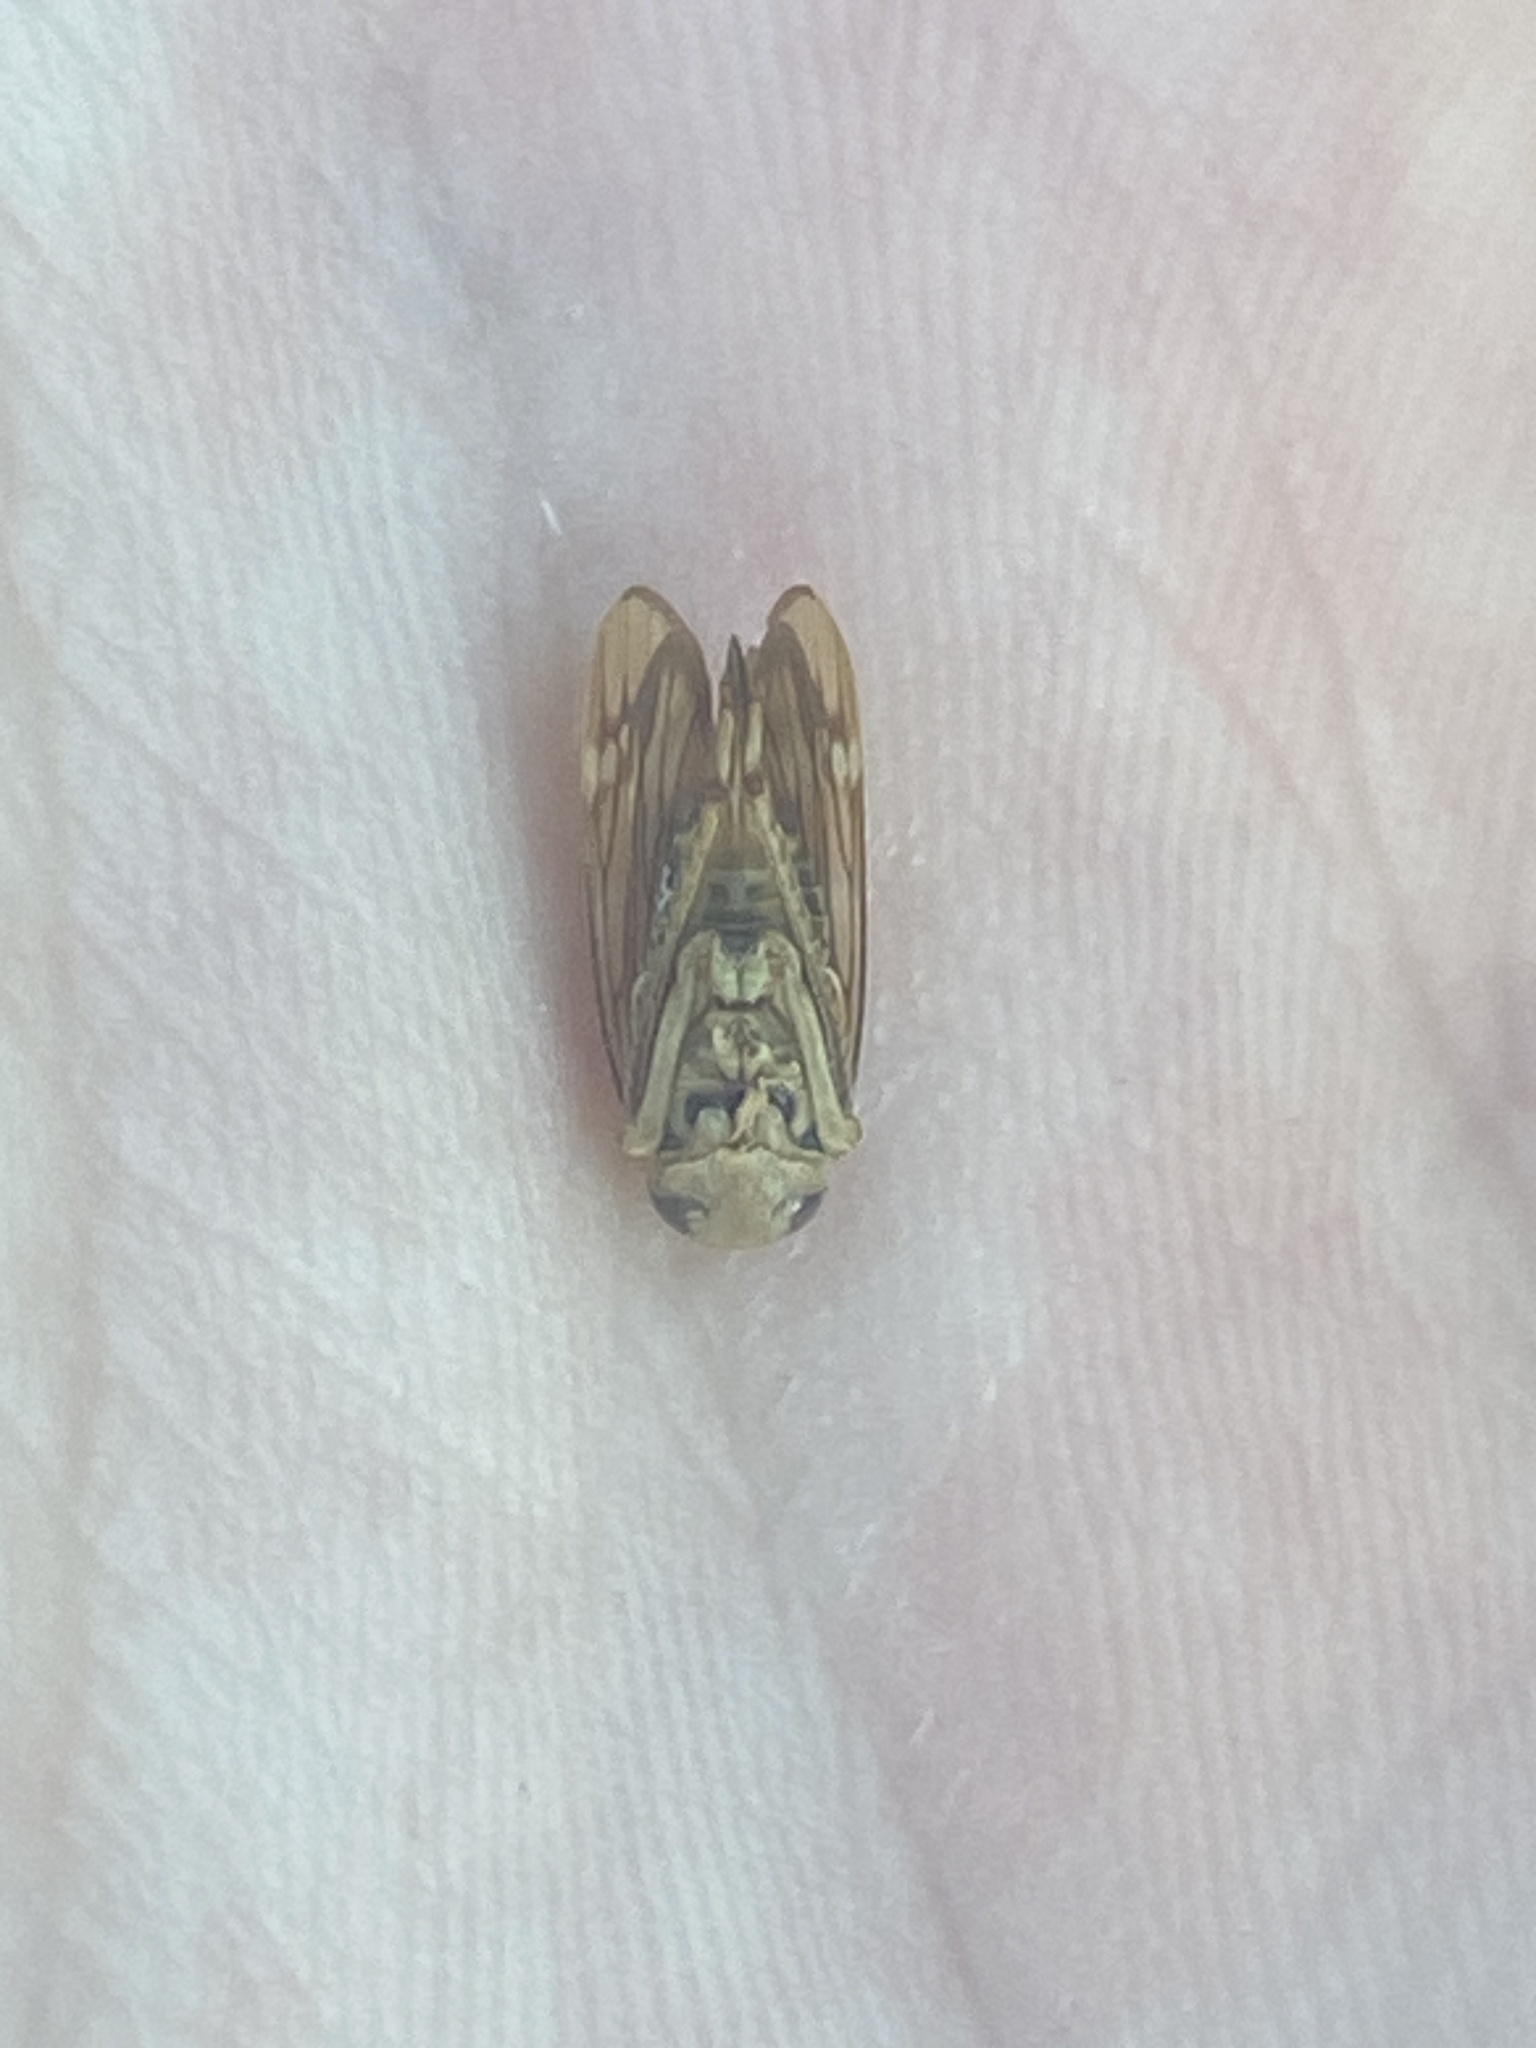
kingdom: Animalia
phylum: Arthropoda
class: Insecta
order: Hemiptera
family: Cicadellidae
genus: Jikradia
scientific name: Jikradia olitoria
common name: Coppery leafhopper
